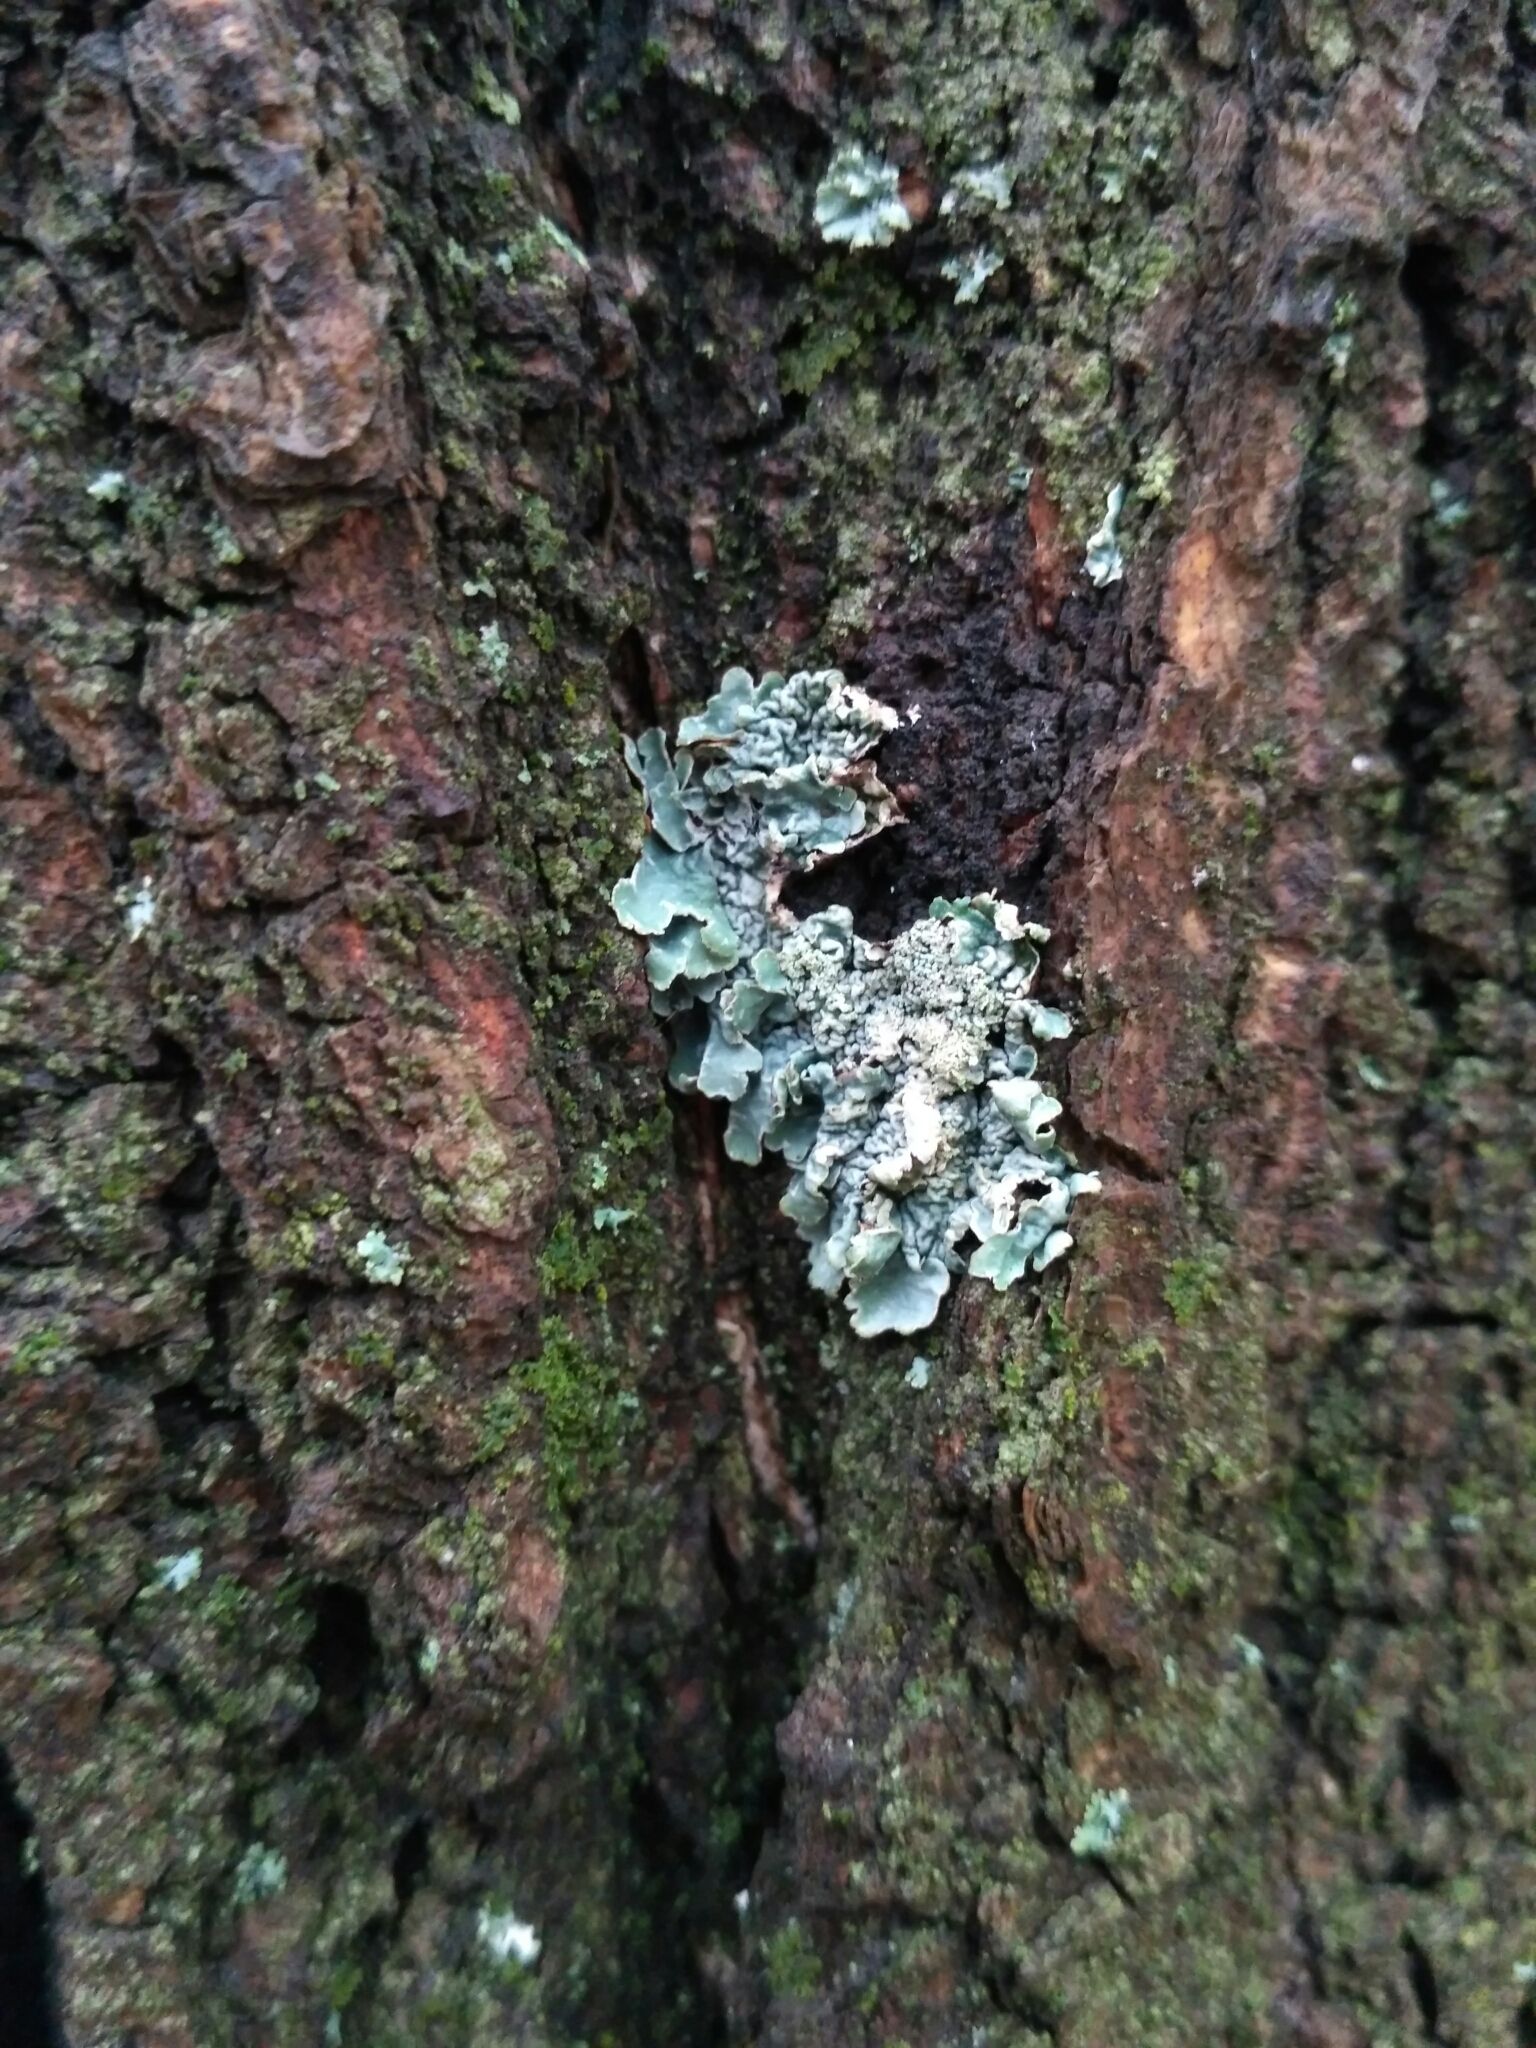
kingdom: Fungi
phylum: Ascomycota
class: Lecanoromycetes
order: Lecanorales
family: Parmeliaceae
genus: Parmelia
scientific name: Parmelia sulcata
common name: Netted shield lichen
